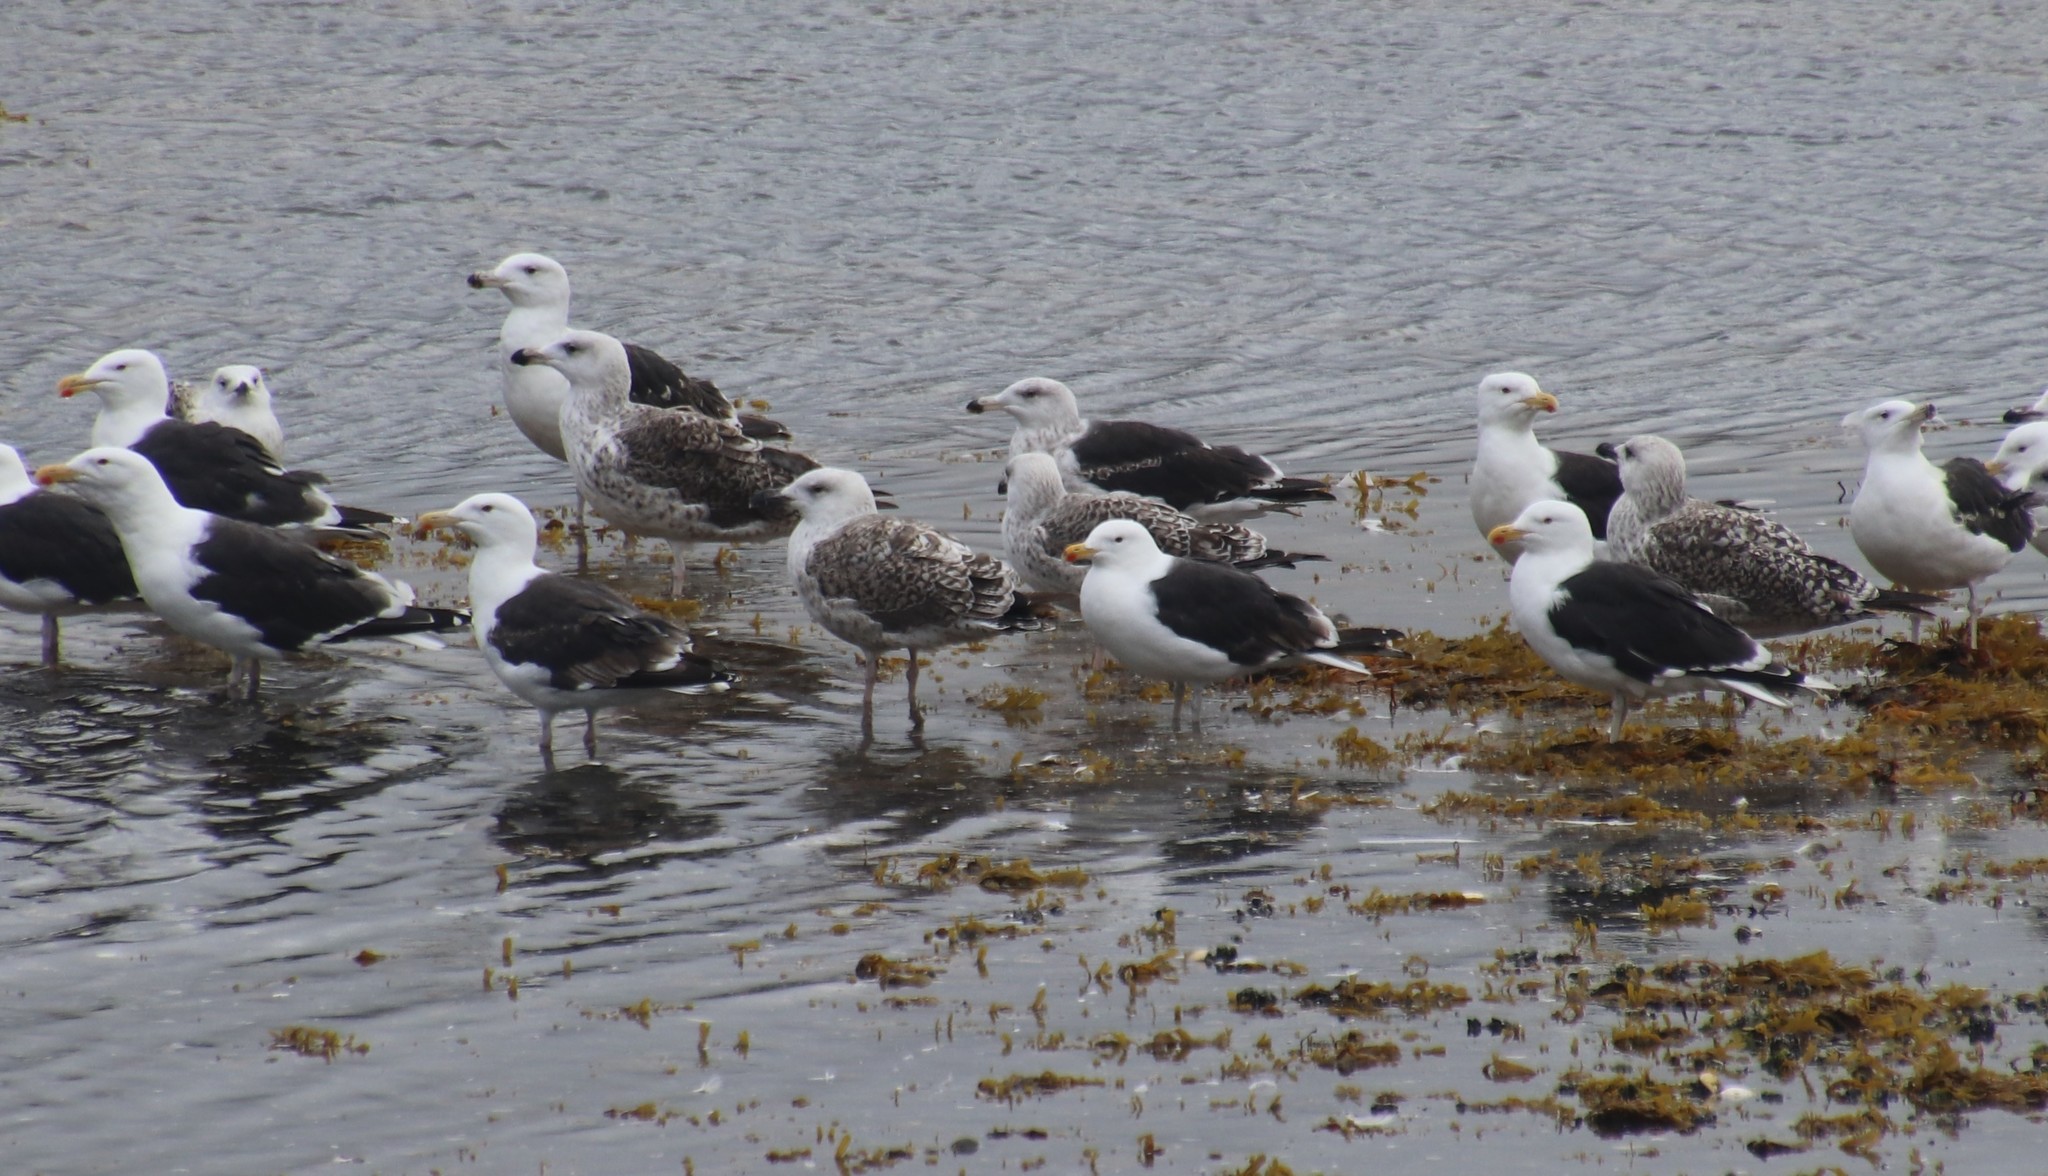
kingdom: Animalia
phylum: Chordata
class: Aves
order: Charadriiformes
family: Laridae
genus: Larus
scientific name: Larus marinus
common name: Great black-backed gull
